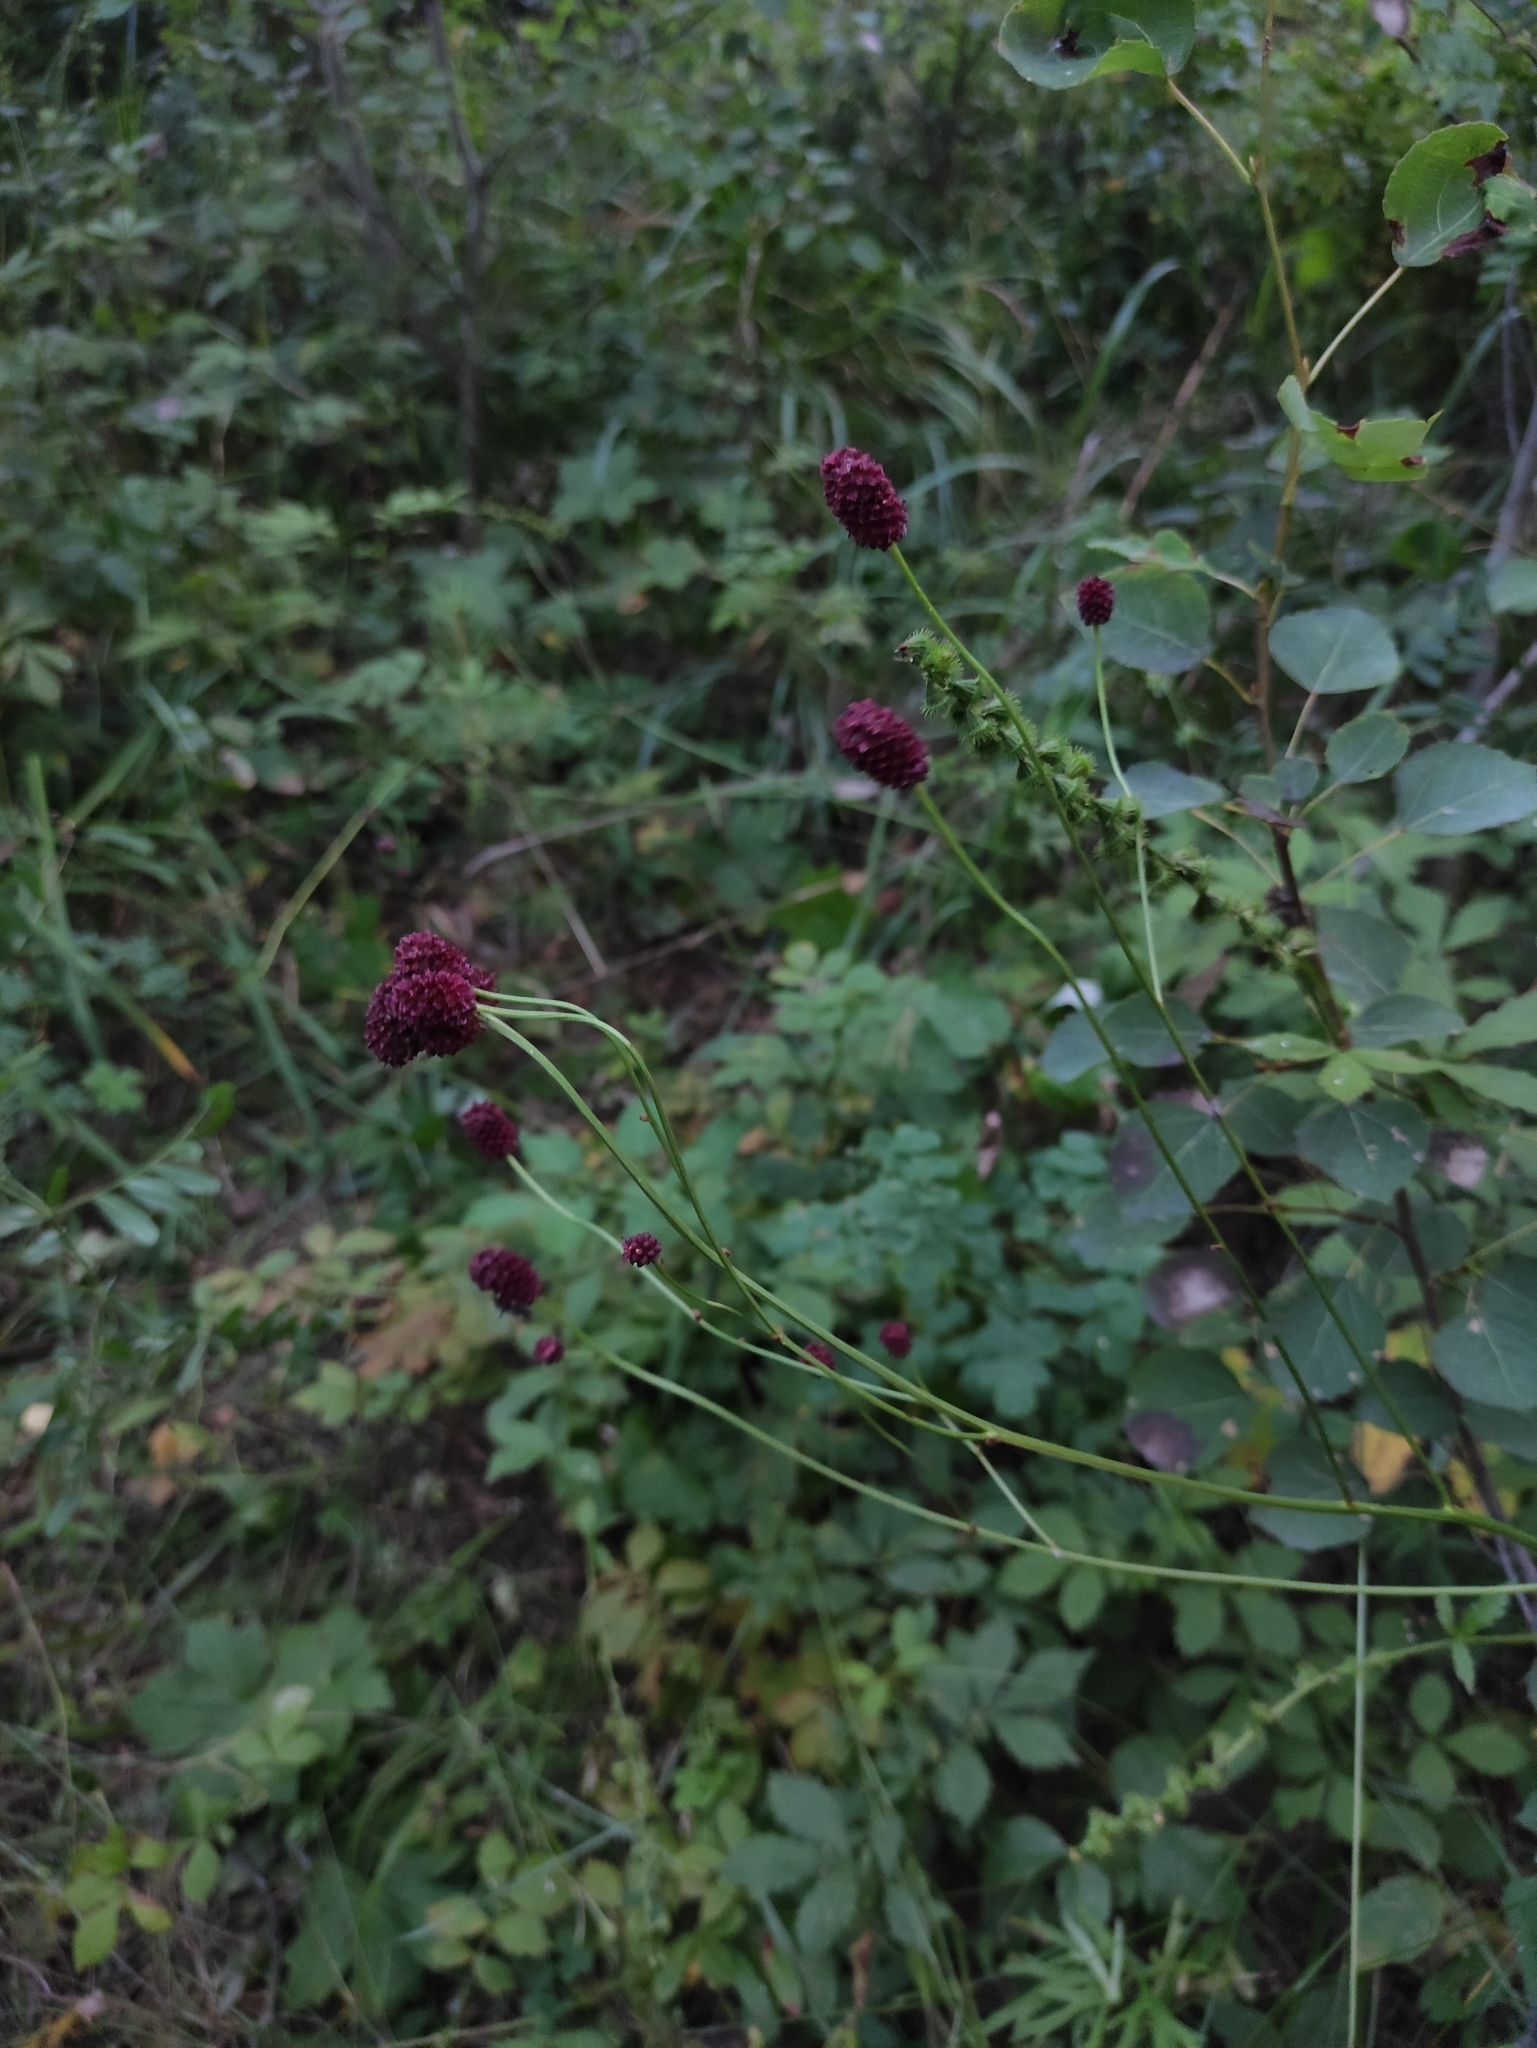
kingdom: Plantae
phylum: Tracheophyta
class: Magnoliopsida
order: Rosales
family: Rosaceae
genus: Sanguisorba
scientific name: Sanguisorba officinalis
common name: Great burnet
